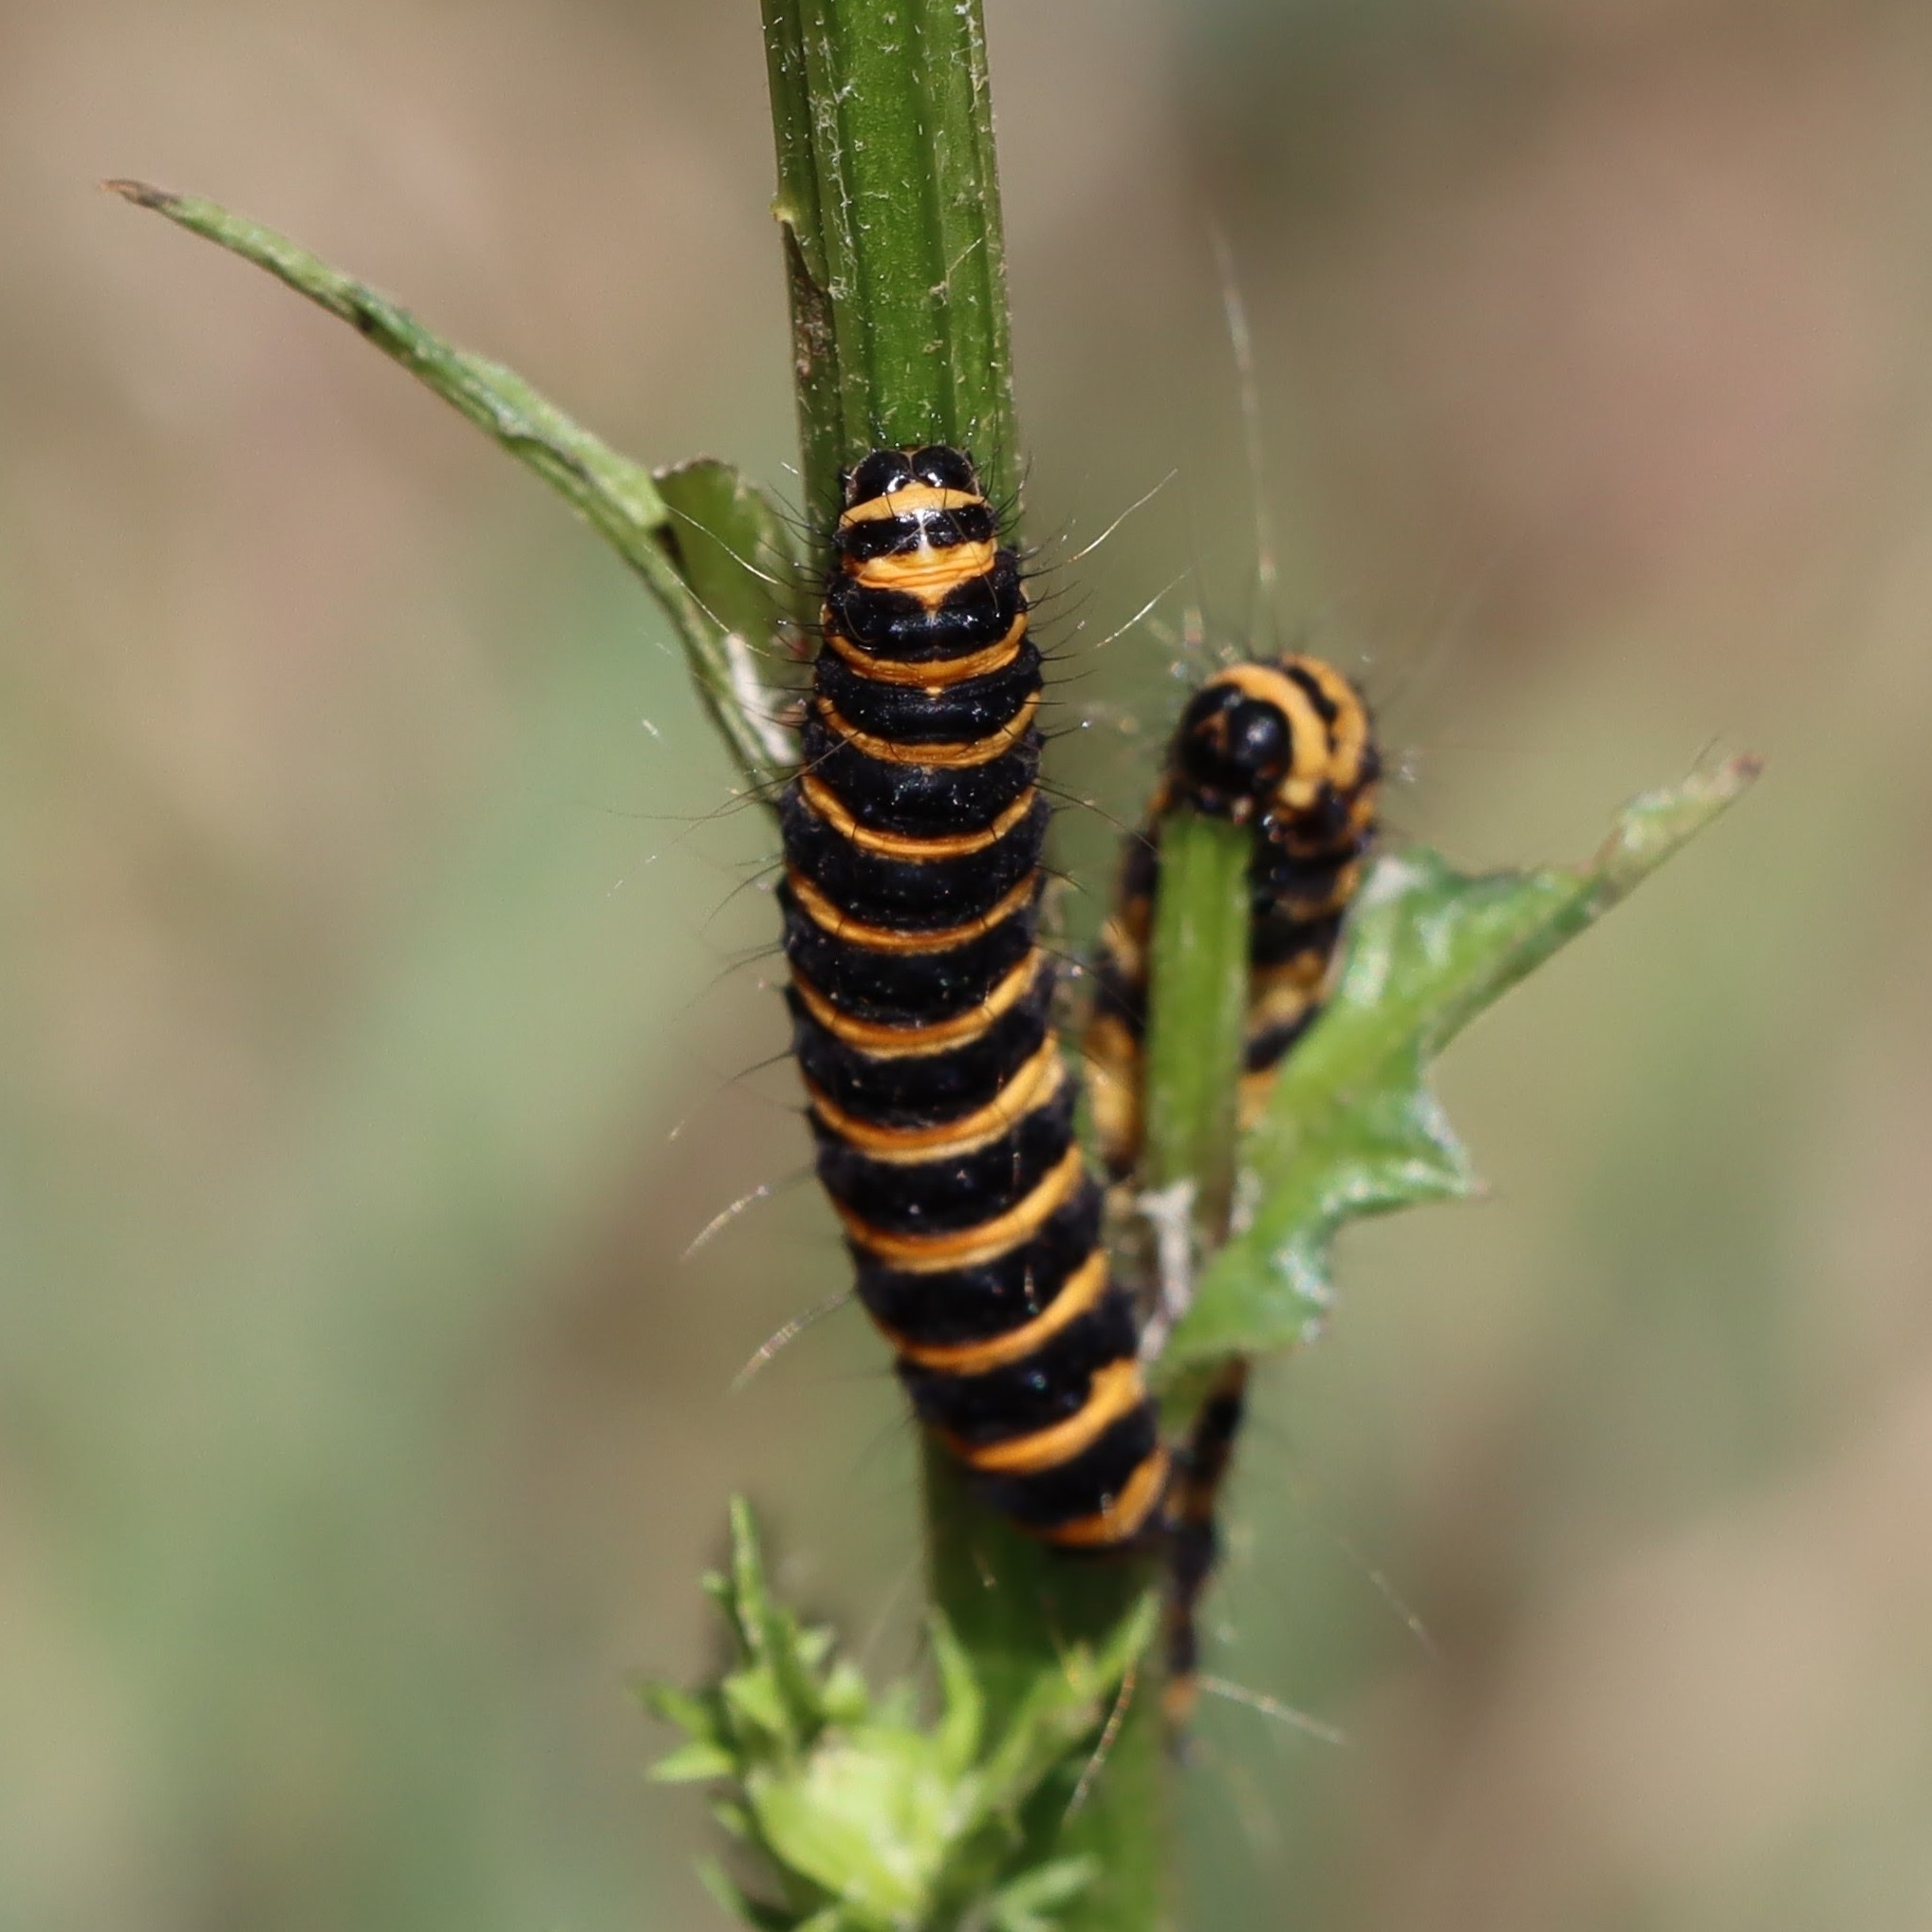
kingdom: Animalia
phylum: Arthropoda
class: Insecta
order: Lepidoptera
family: Erebidae
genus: Tyria
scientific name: Tyria jacobaeae
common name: Cinnabar
